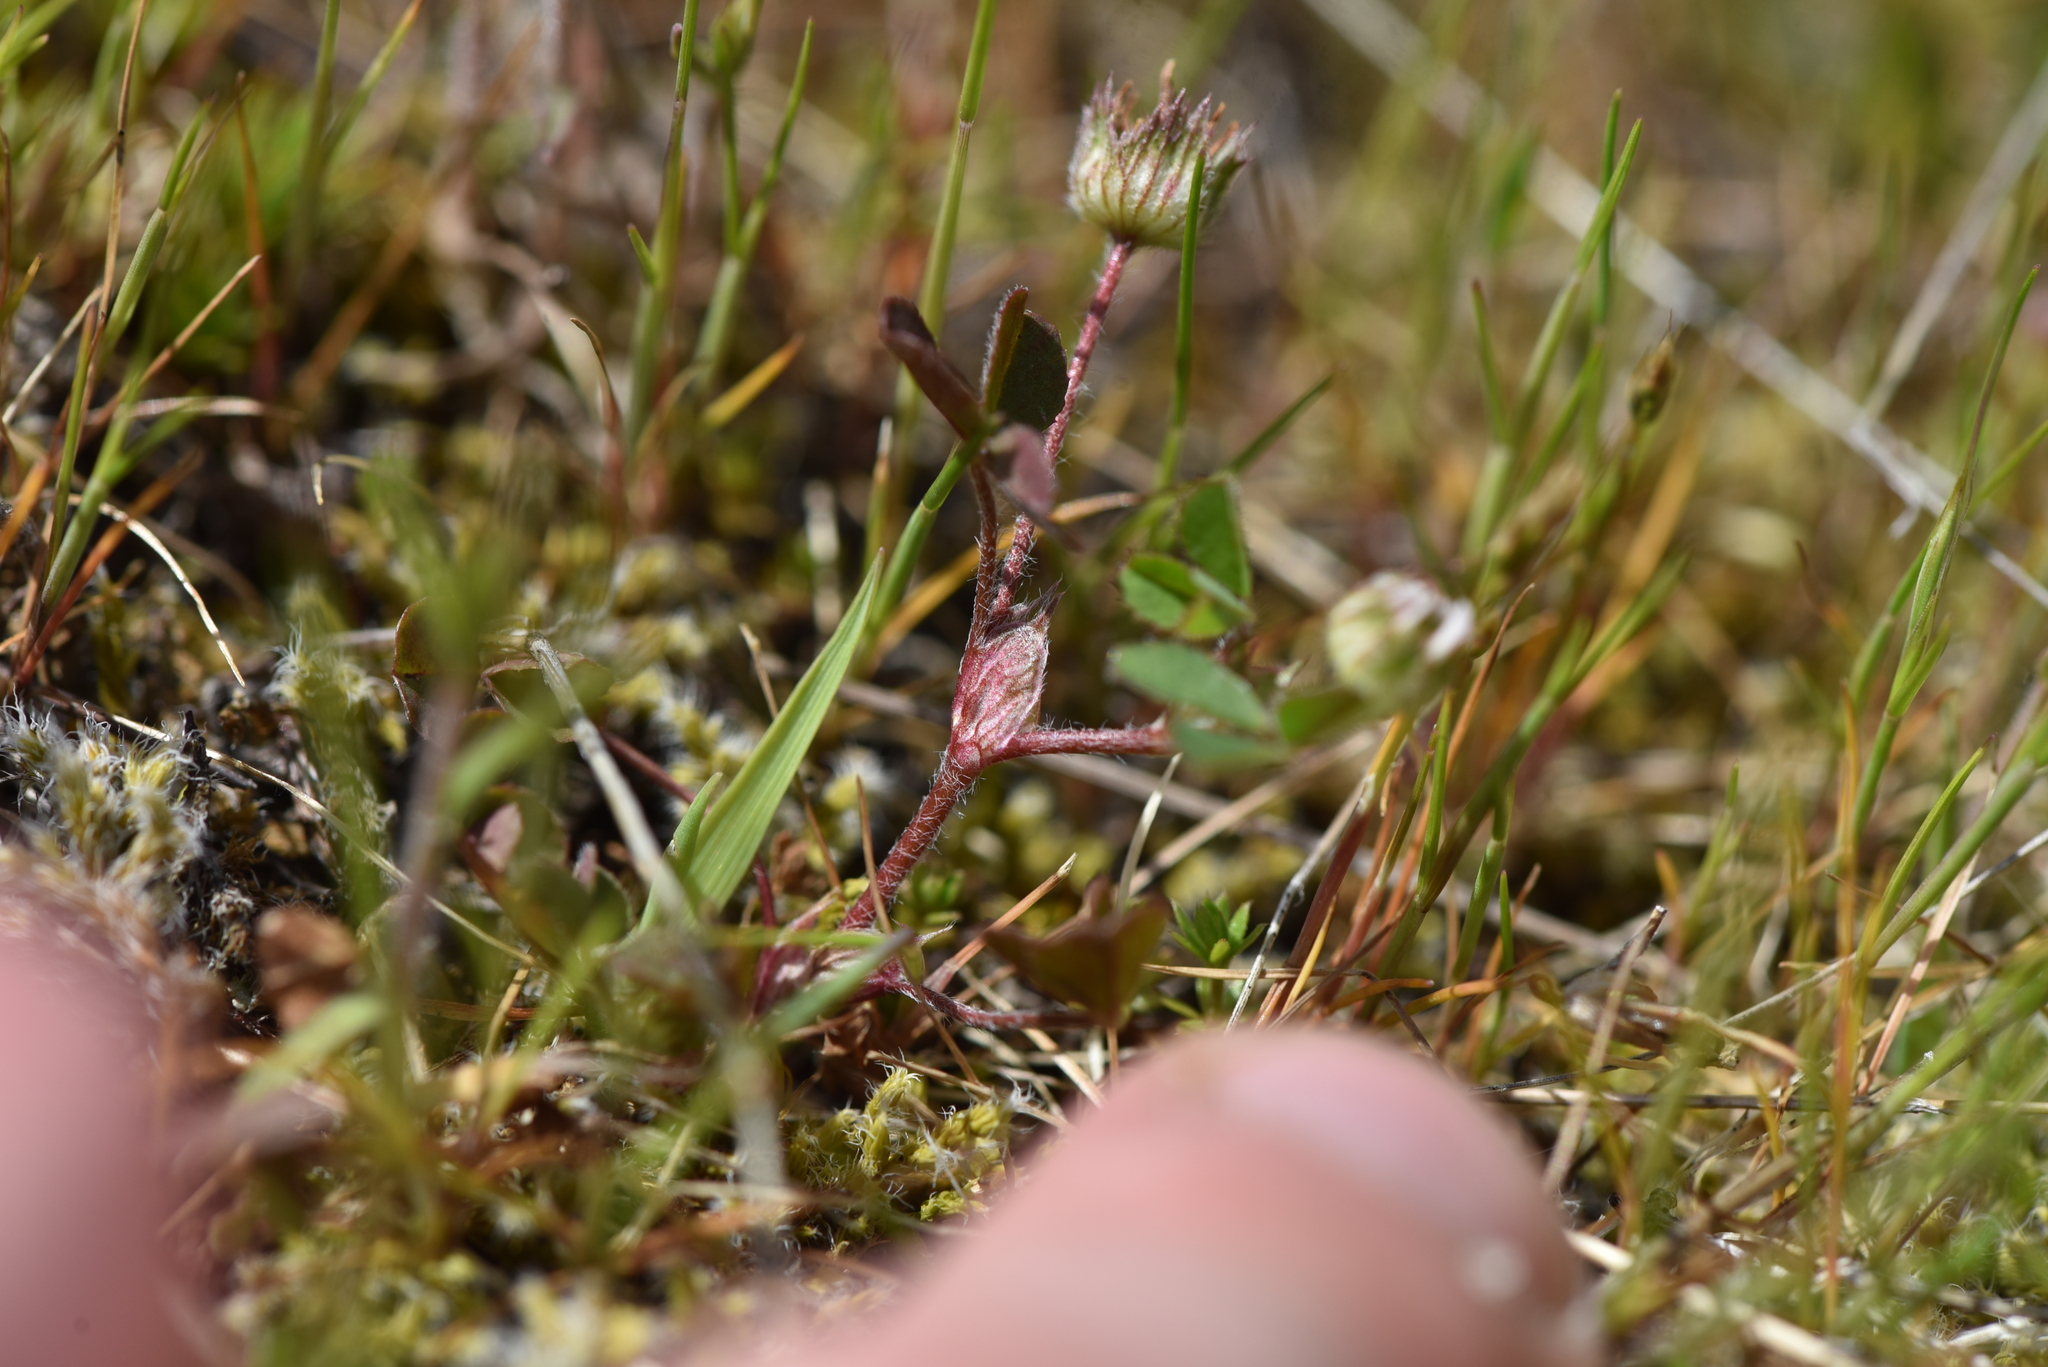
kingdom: Plantae
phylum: Tracheophyta
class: Magnoliopsida
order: Fabales
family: Fabaceae
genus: Trifolium
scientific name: Trifolium microdon
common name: Thimble clover
